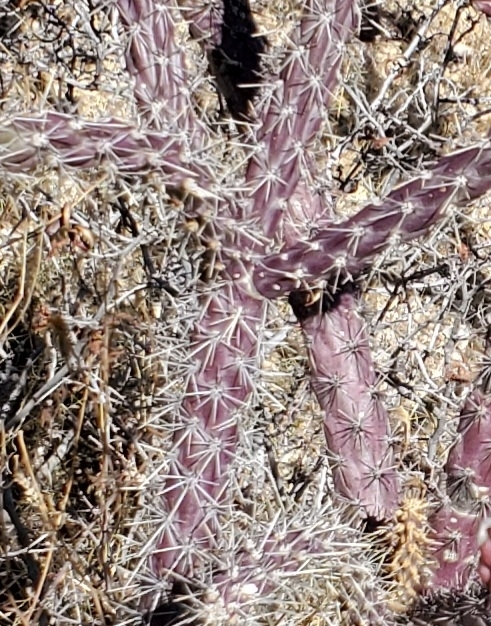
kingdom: Plantae
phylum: Tracheophyta
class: Magnoliopsida
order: Caryophyllales
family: Cactaceae
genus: Cylindropuntia
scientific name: Cylindropuntia thurberi
